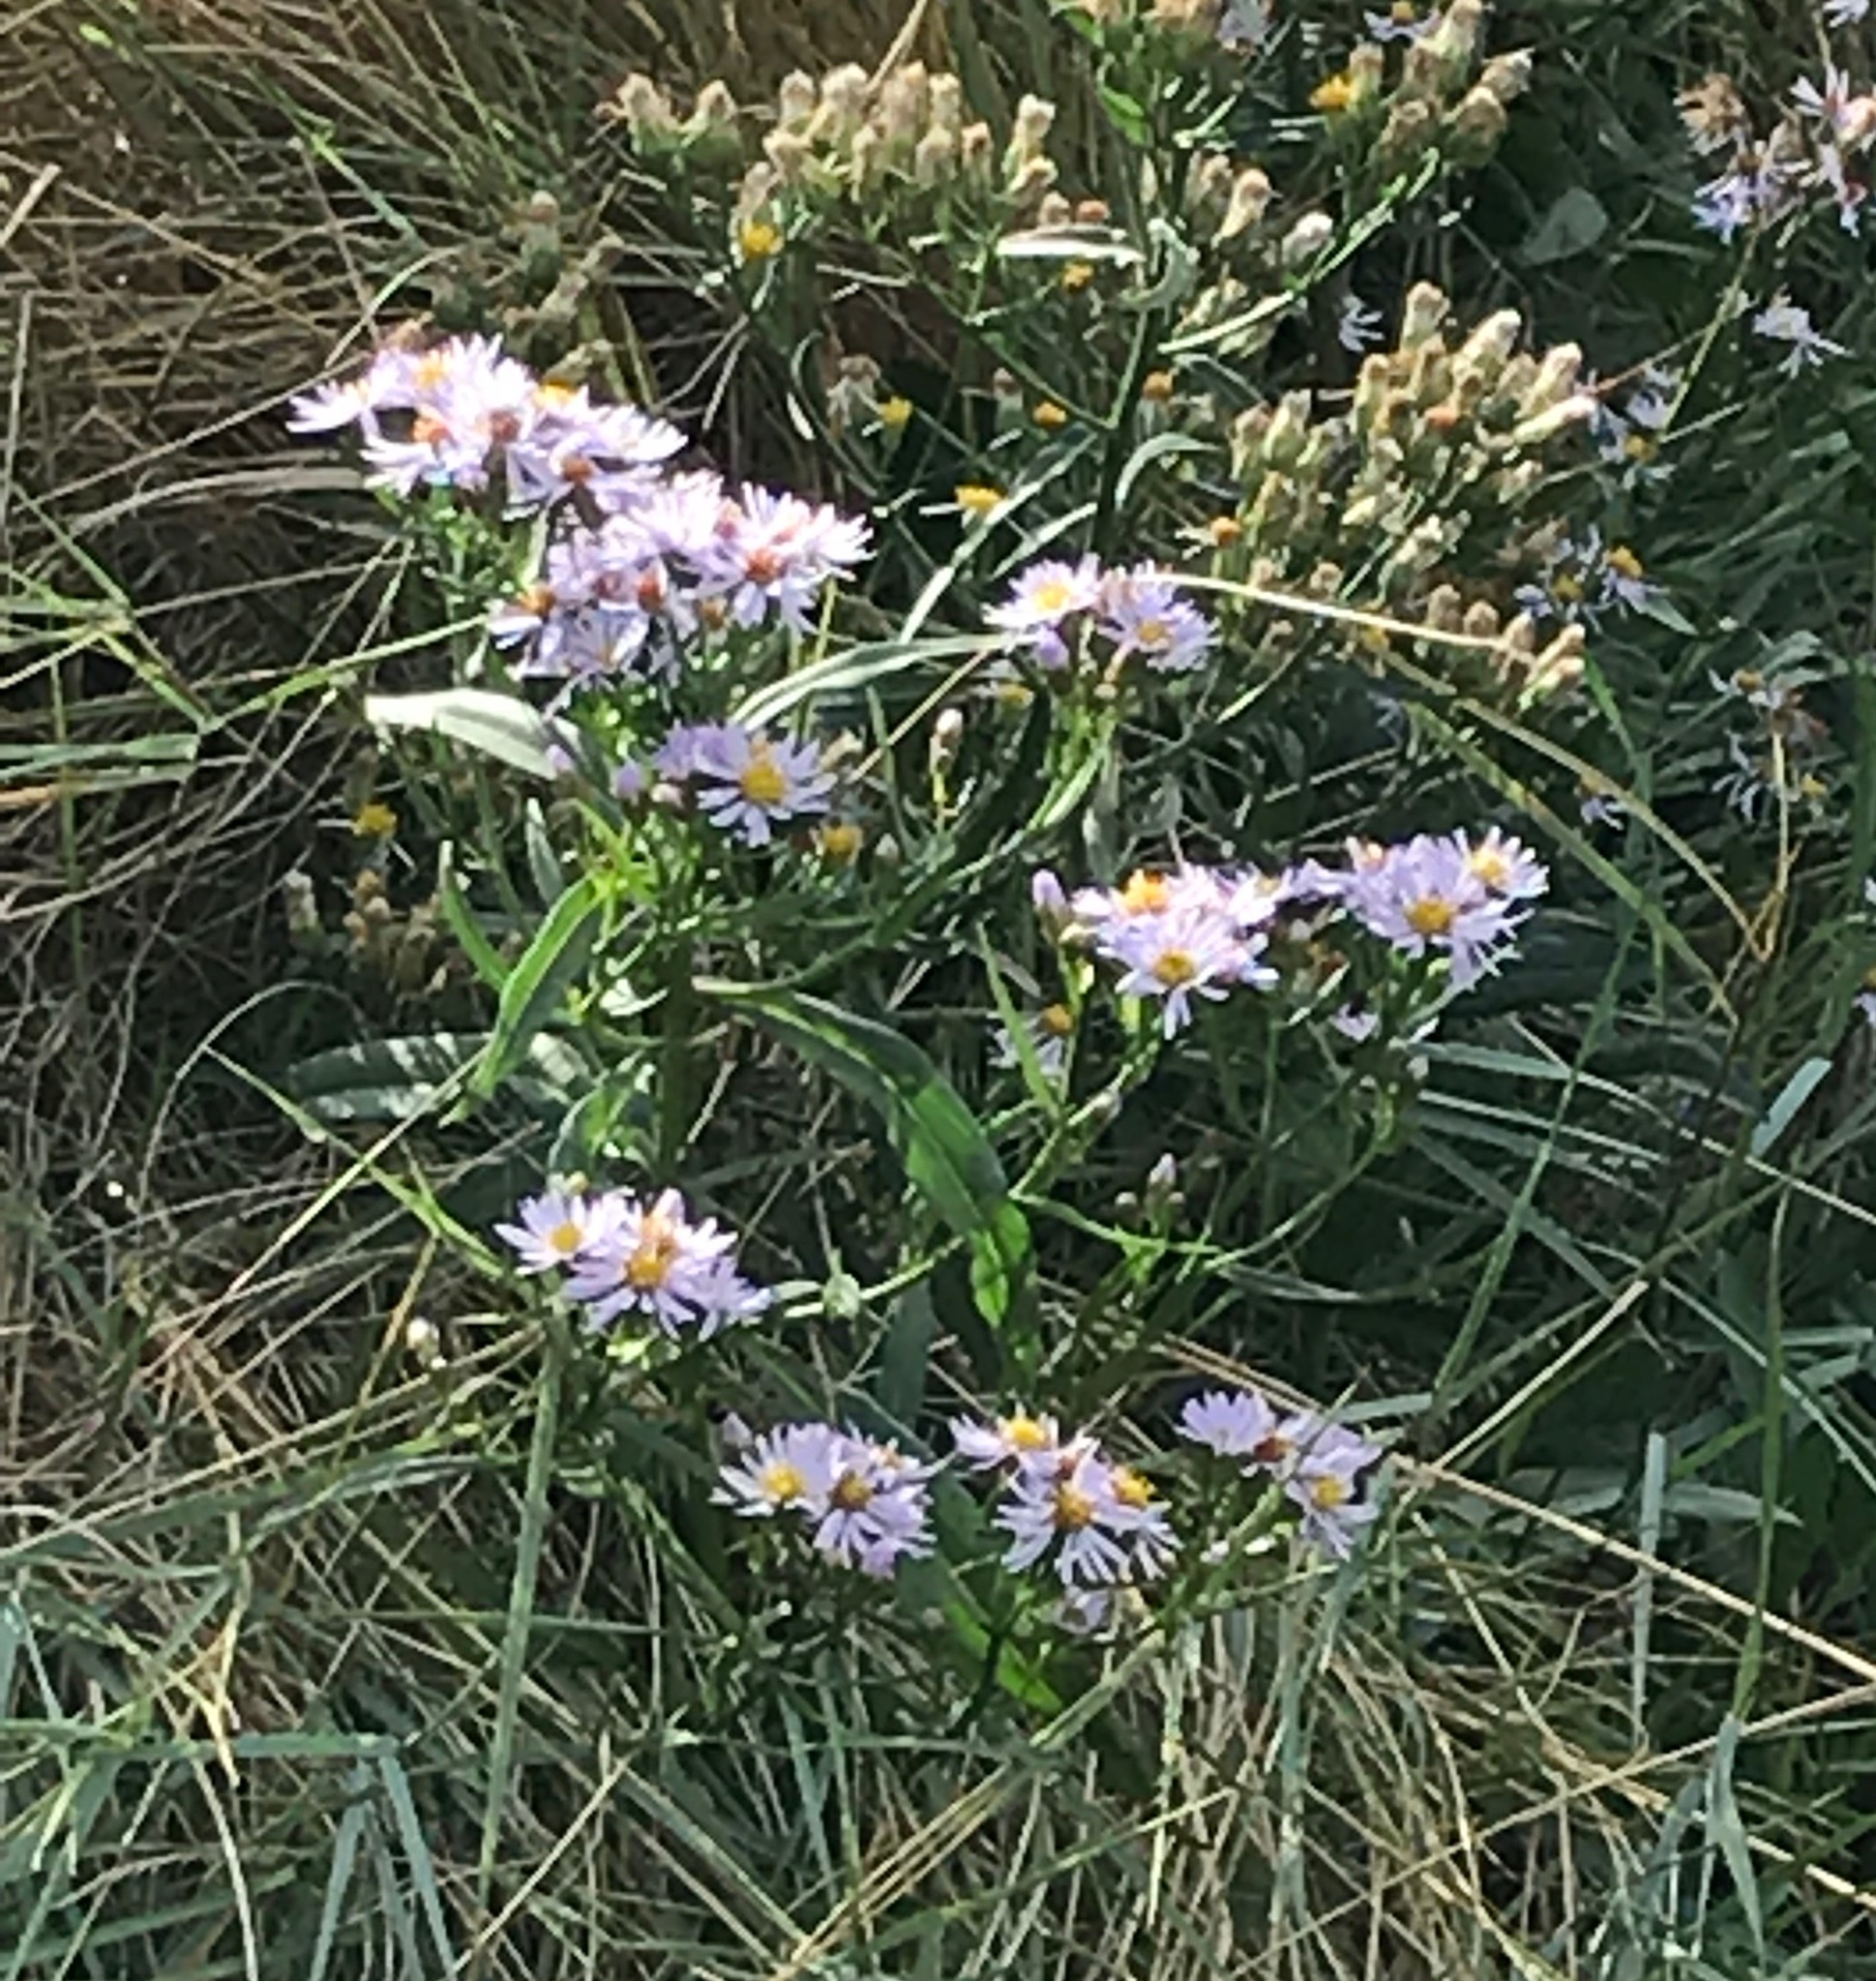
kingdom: Plantae
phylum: Tracheophyta
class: Magnoliopsida
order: Asterales
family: Asteraceae
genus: Tripolium
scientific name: Tripolium pannonicum
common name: Sea aster
